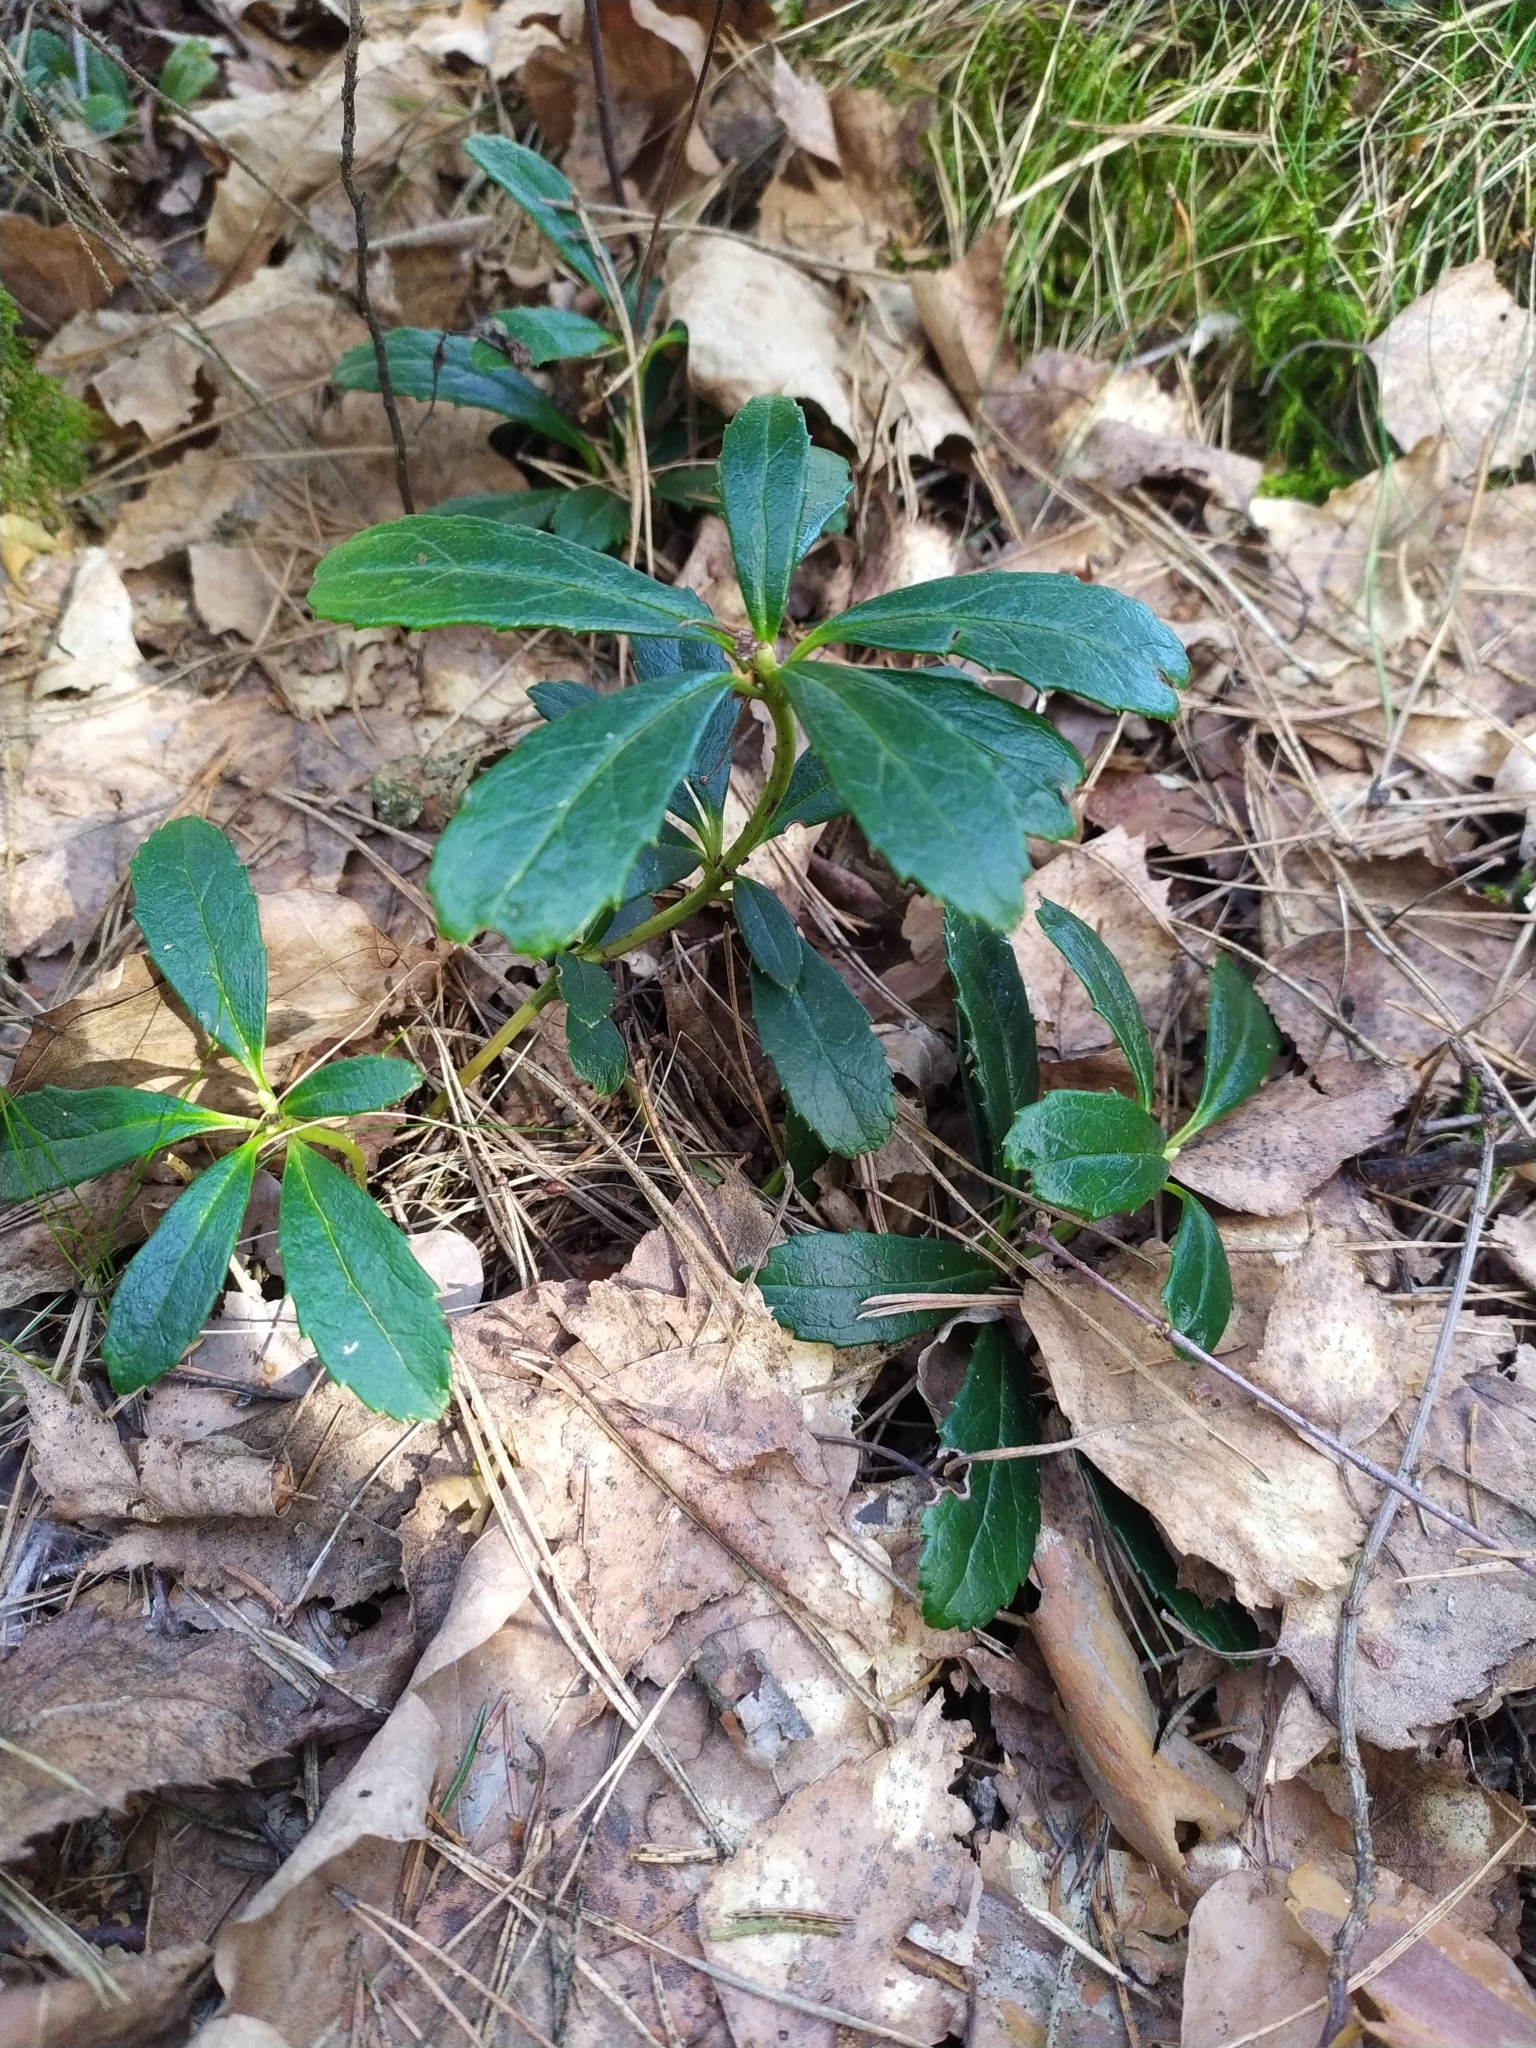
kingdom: Plantae
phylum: Tracheophyta
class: Magnoliopsida
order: Ericales
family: Ericaceae
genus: Chimaphila
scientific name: Chimaphila umbellata
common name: Pipsissewa
